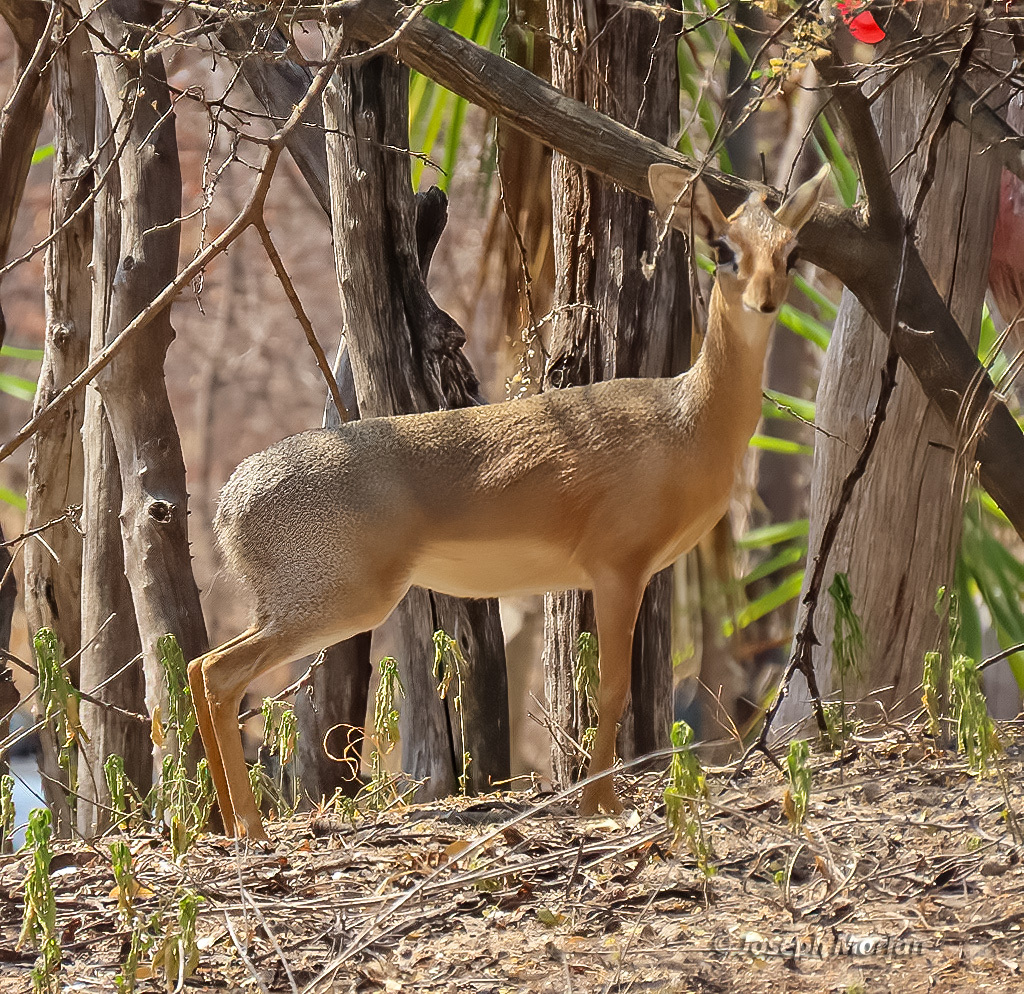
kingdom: Animalia
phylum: Chordata
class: Mammalia
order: Artiodactyla
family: Bovidae
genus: Madoqua
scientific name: Madoqua kirkii
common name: Kirk's dik-dik
